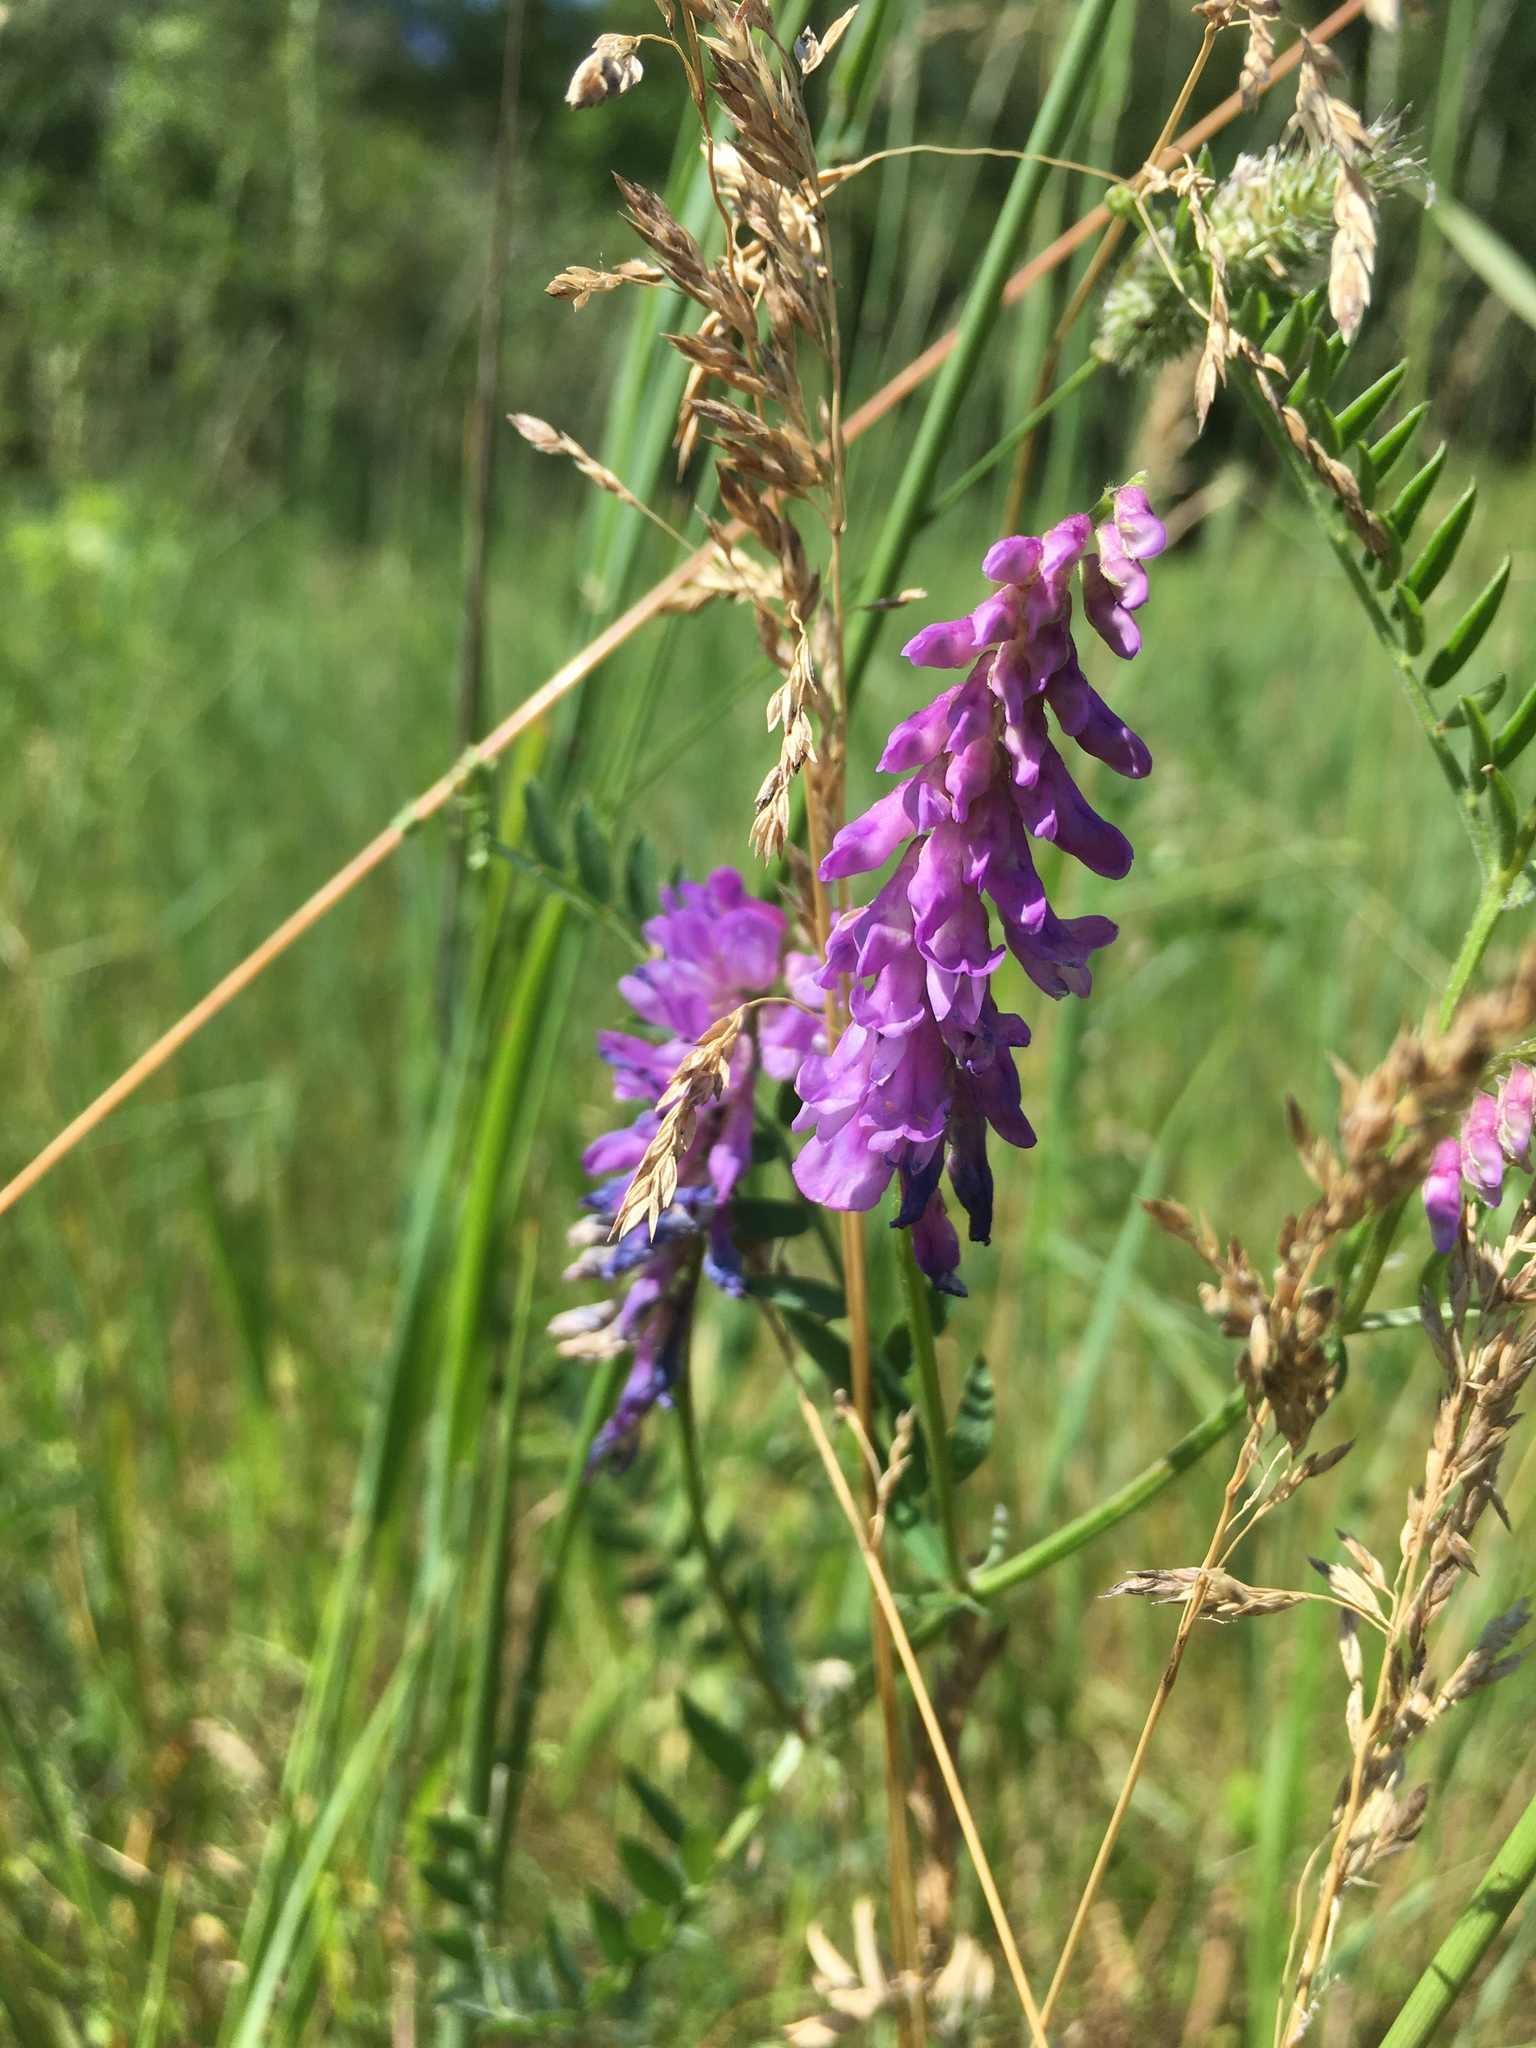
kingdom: Plantae
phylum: Tracheophyta
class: Magnoliopsida
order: Fabales
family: Fabaceae
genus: Vicia
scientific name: Vicia cracca
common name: Bird vetch
